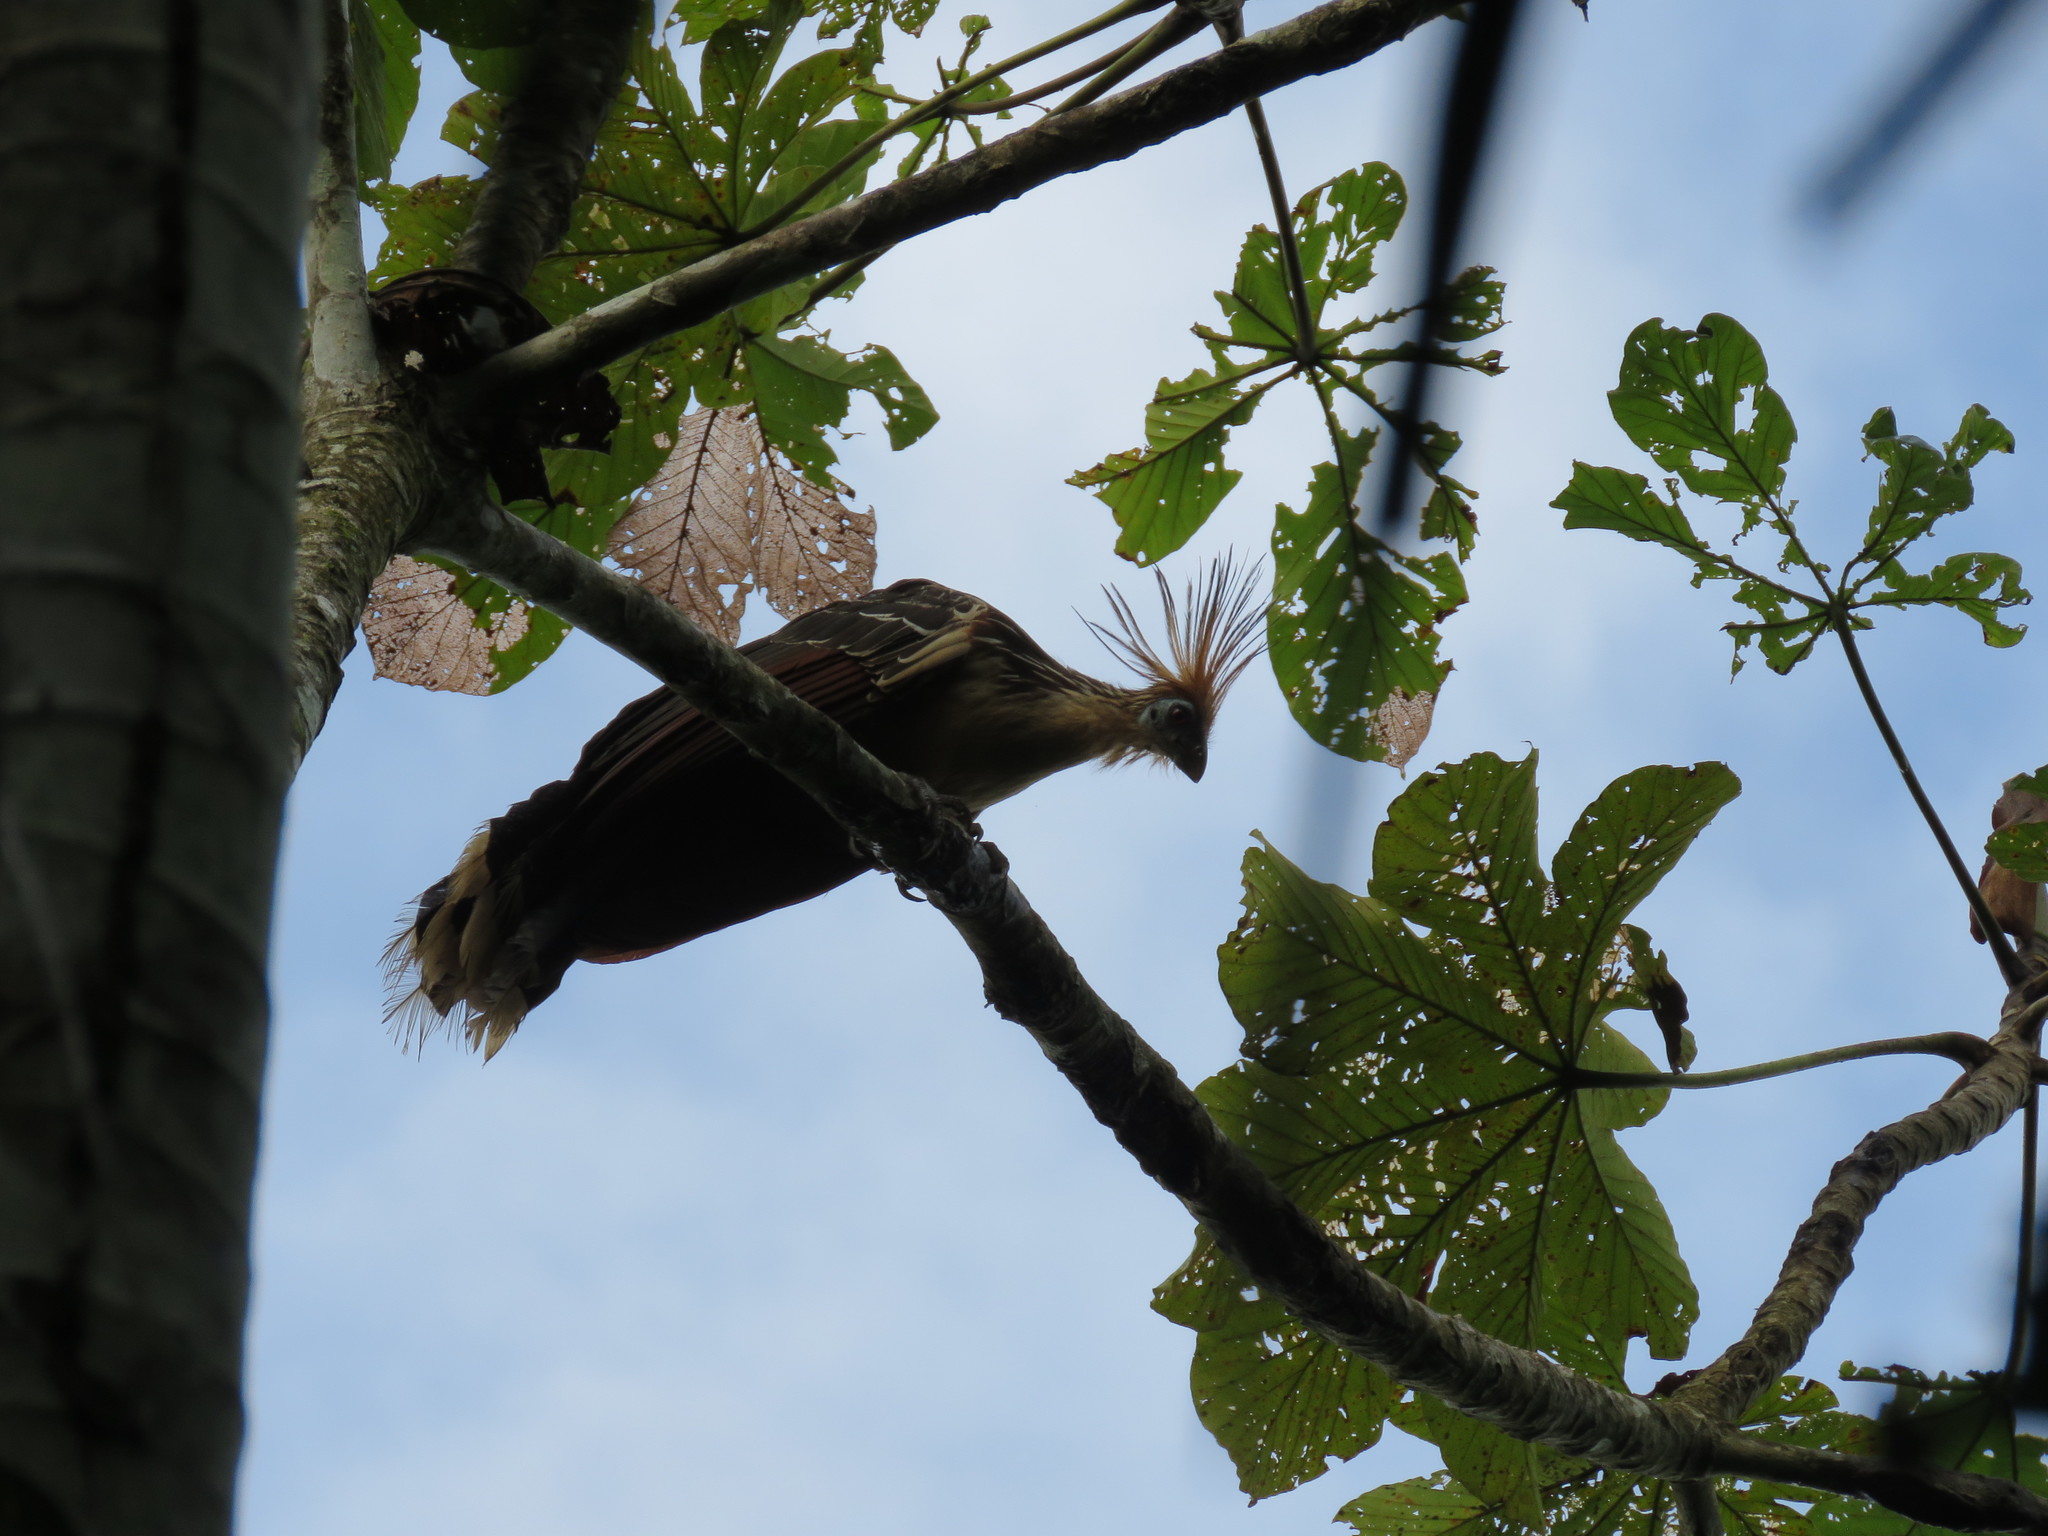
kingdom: Animalia
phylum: Chordata
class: Aves
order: Opisthocomiformes
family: Opisthocomidae
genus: Opisthocomus
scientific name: Opisthocomus hoazin
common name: Hoatzin
